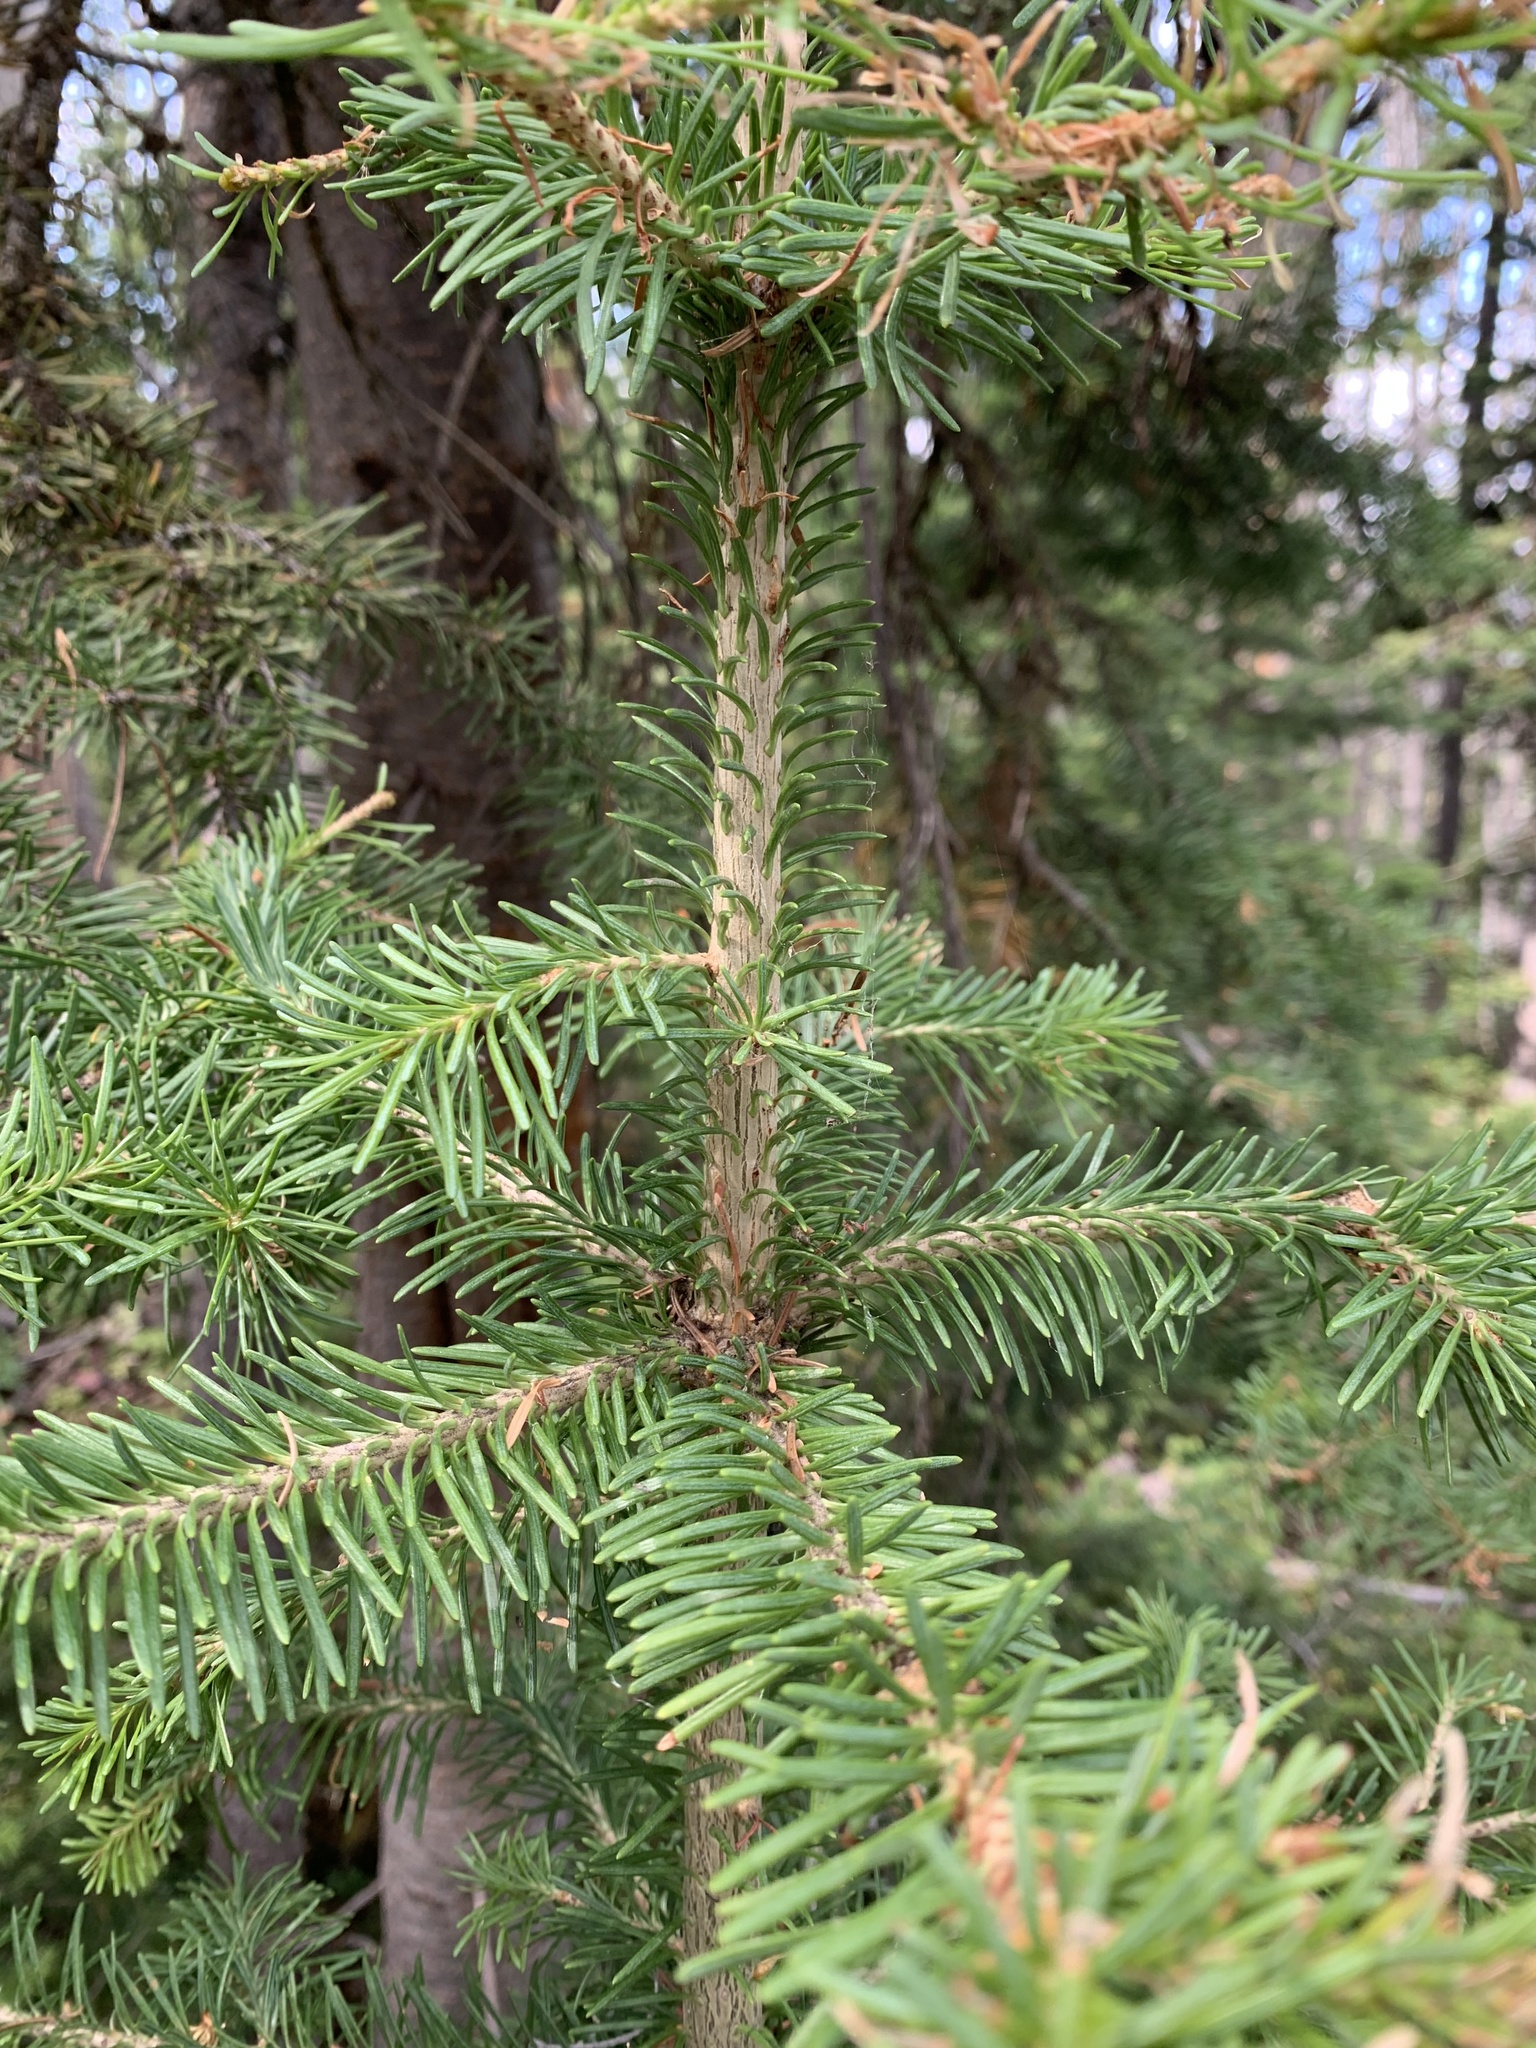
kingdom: Plantae
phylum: Tracheophyta
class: Pinopsida
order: Pinales
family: Pinaceae
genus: Abies
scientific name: Abies lasiocarpa
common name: Subalpine fir
